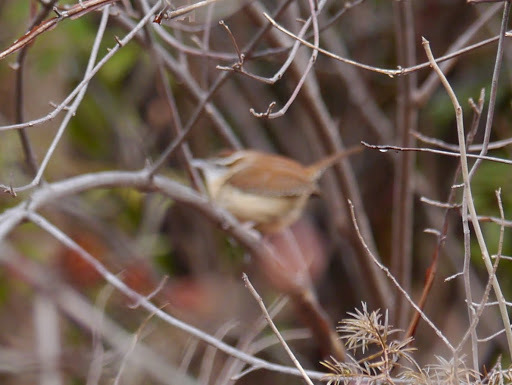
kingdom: Animalia
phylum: Chordata
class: Aves
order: Passeriformes
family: Troglodytidae
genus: Thryothorus
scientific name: Thryothorus ludovicianus
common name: Carolina wren
